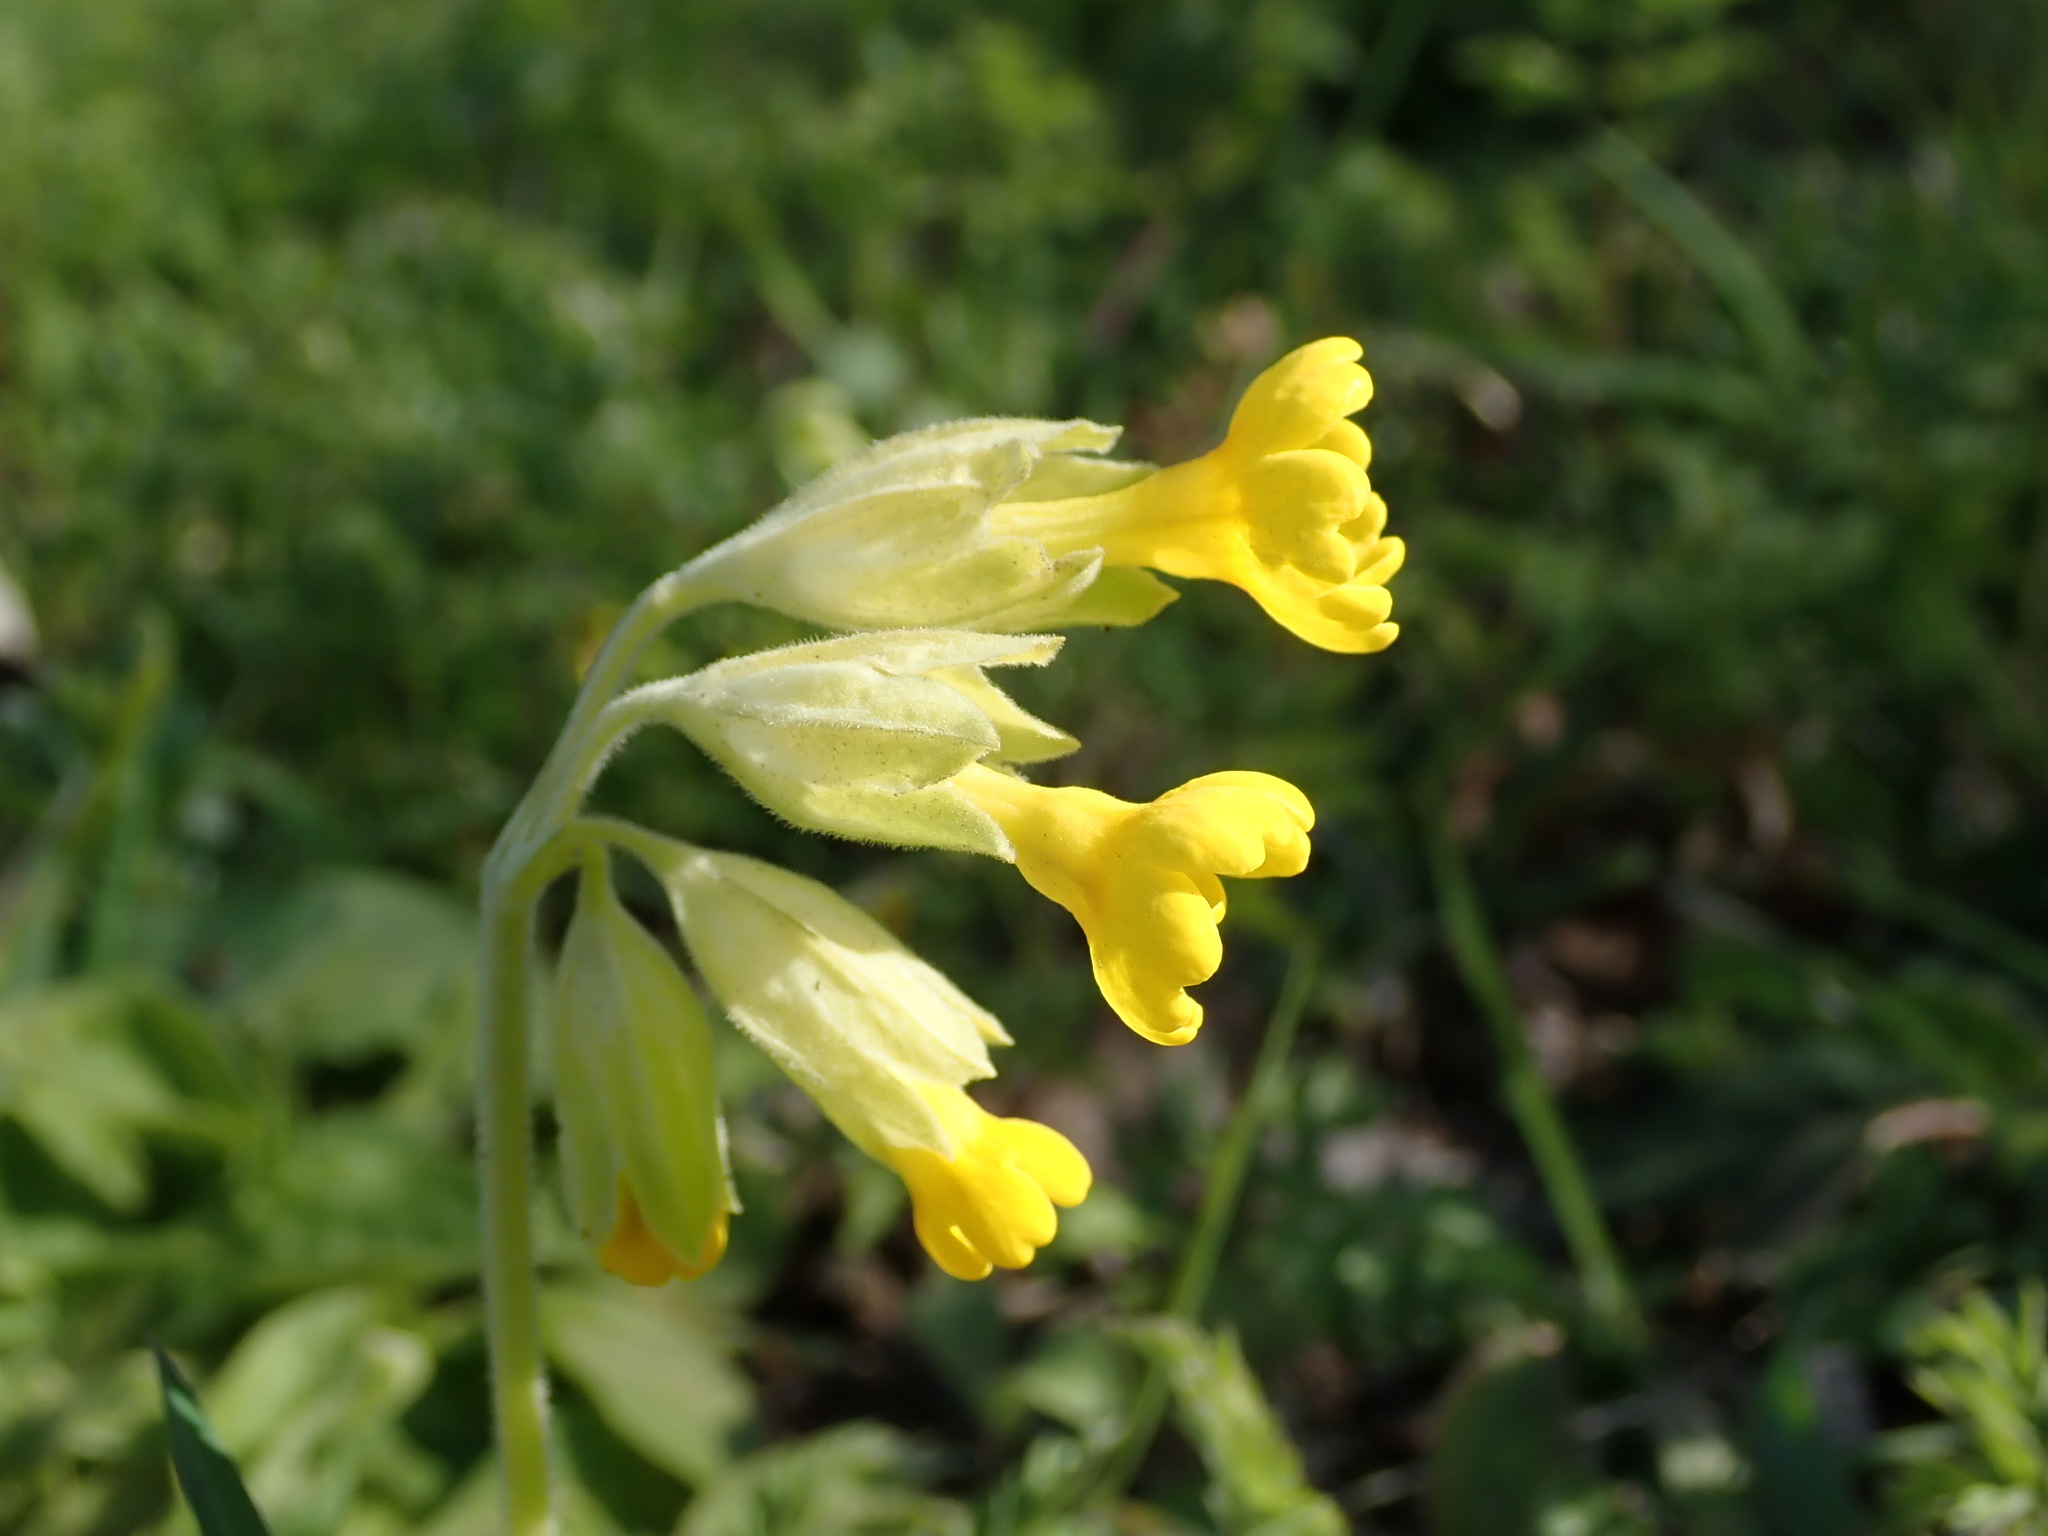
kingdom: Plantae
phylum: Tracheophyta
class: Magnoliopsida
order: Ericales
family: Primulaceae
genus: Primula
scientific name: Primula veris
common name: Cowslip
